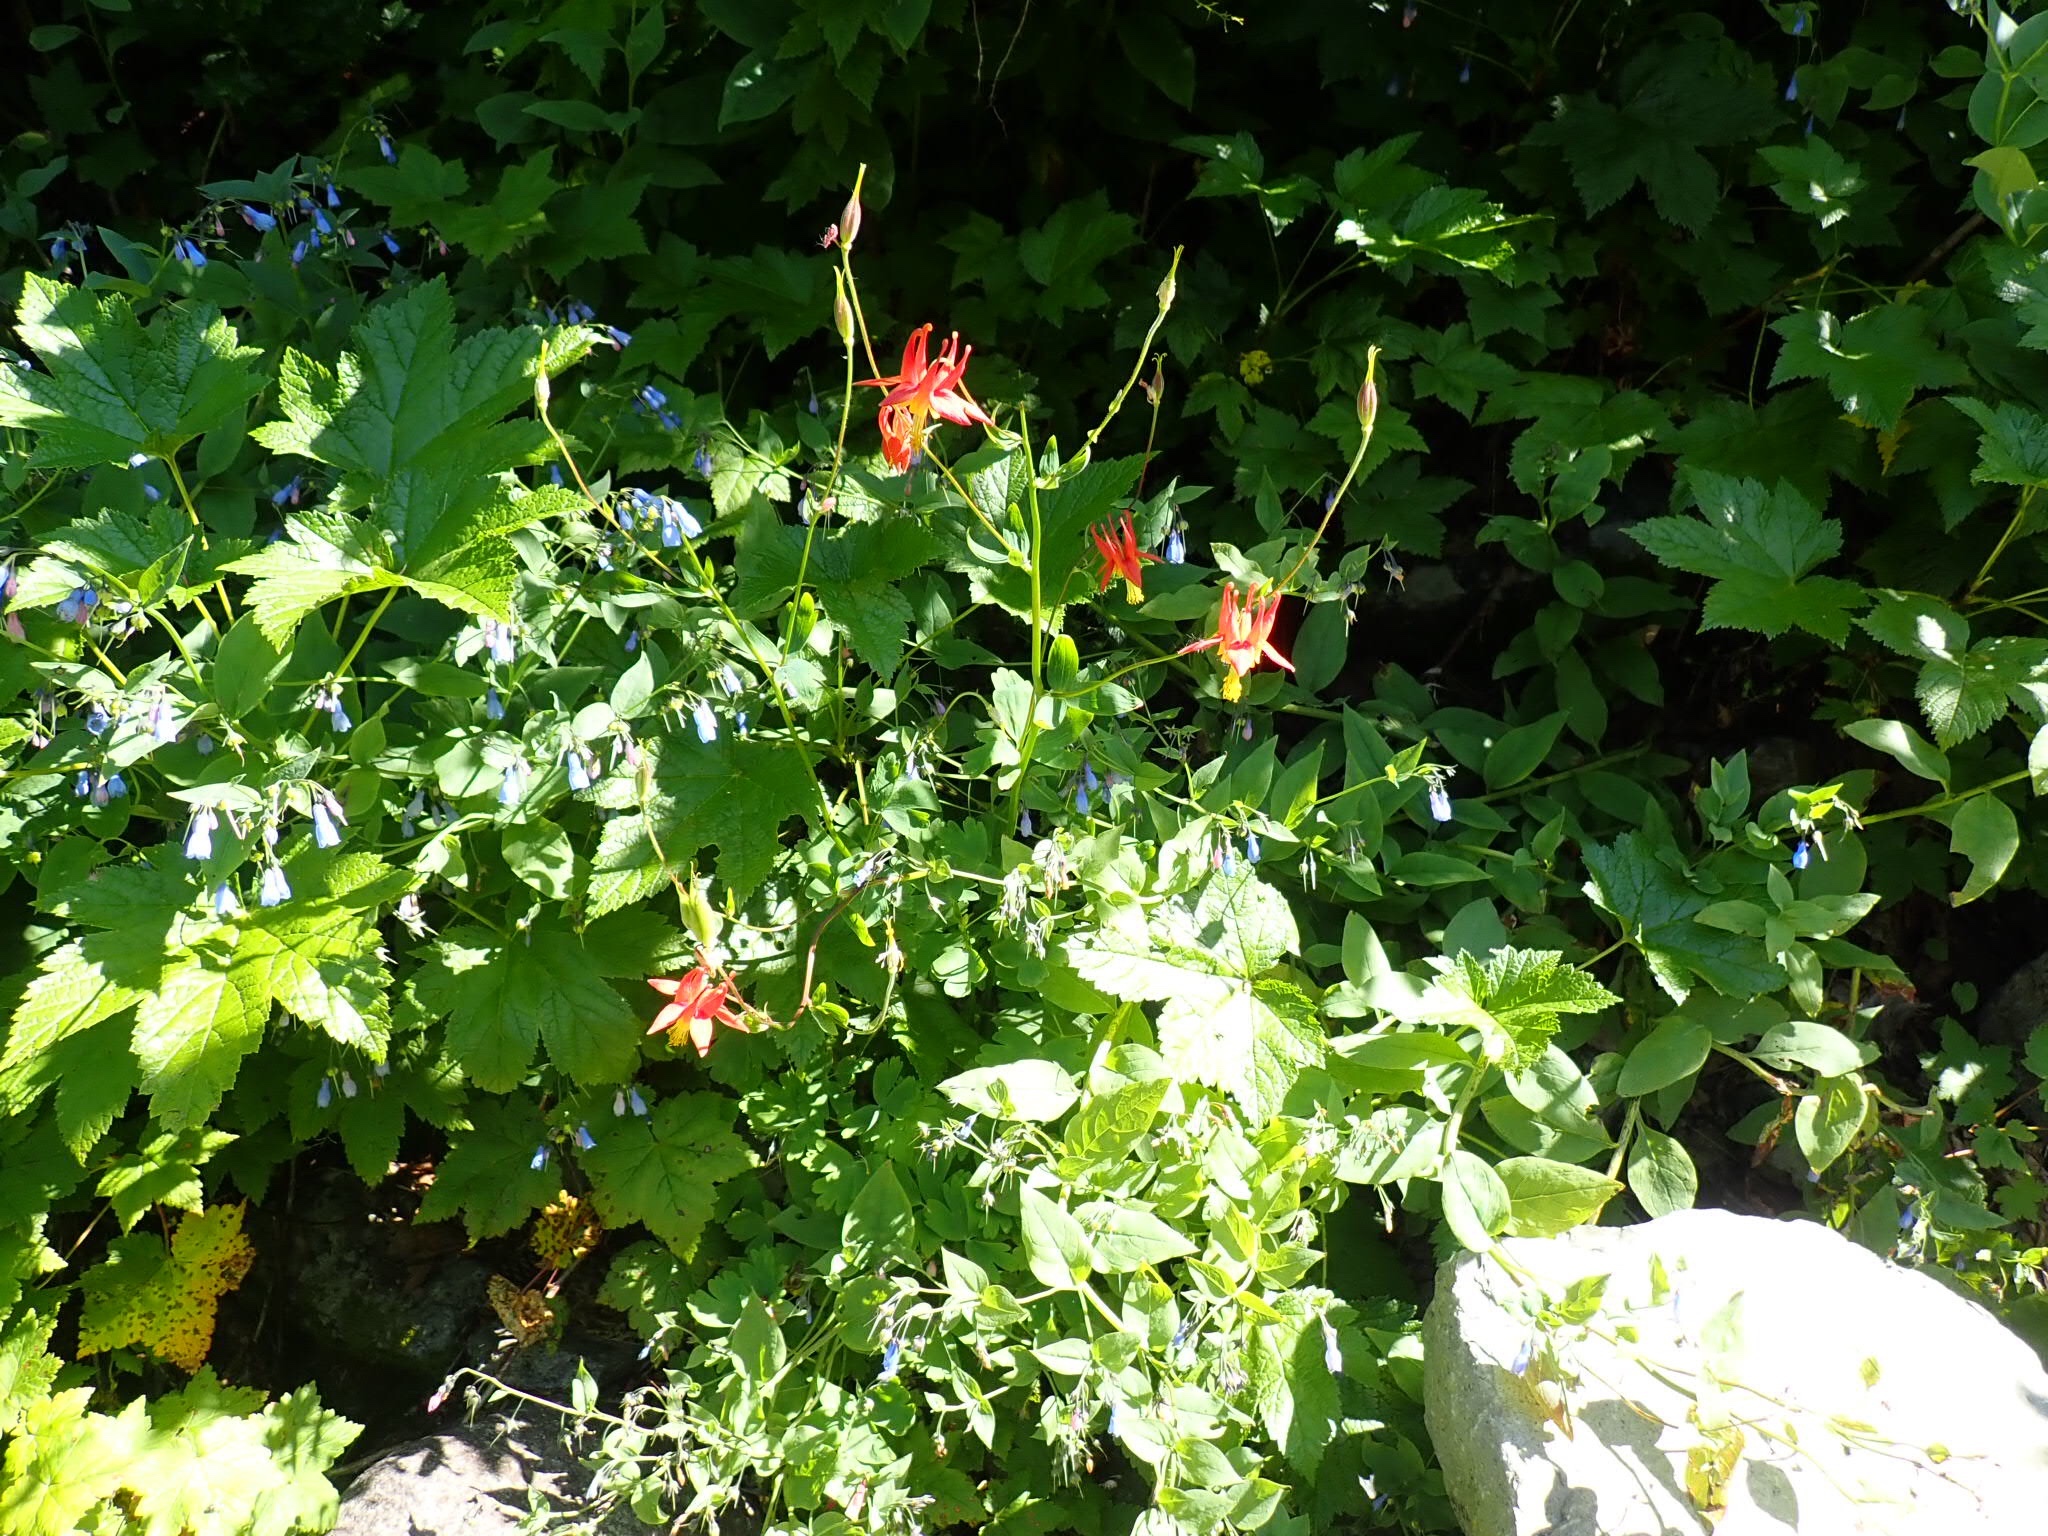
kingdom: Plantae
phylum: Tracheophyta
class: Magnoliopsida
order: Ranunculales
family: Ranunculaceae
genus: Aquilegia
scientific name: Aquilegia formosa
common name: Sitka columbine
